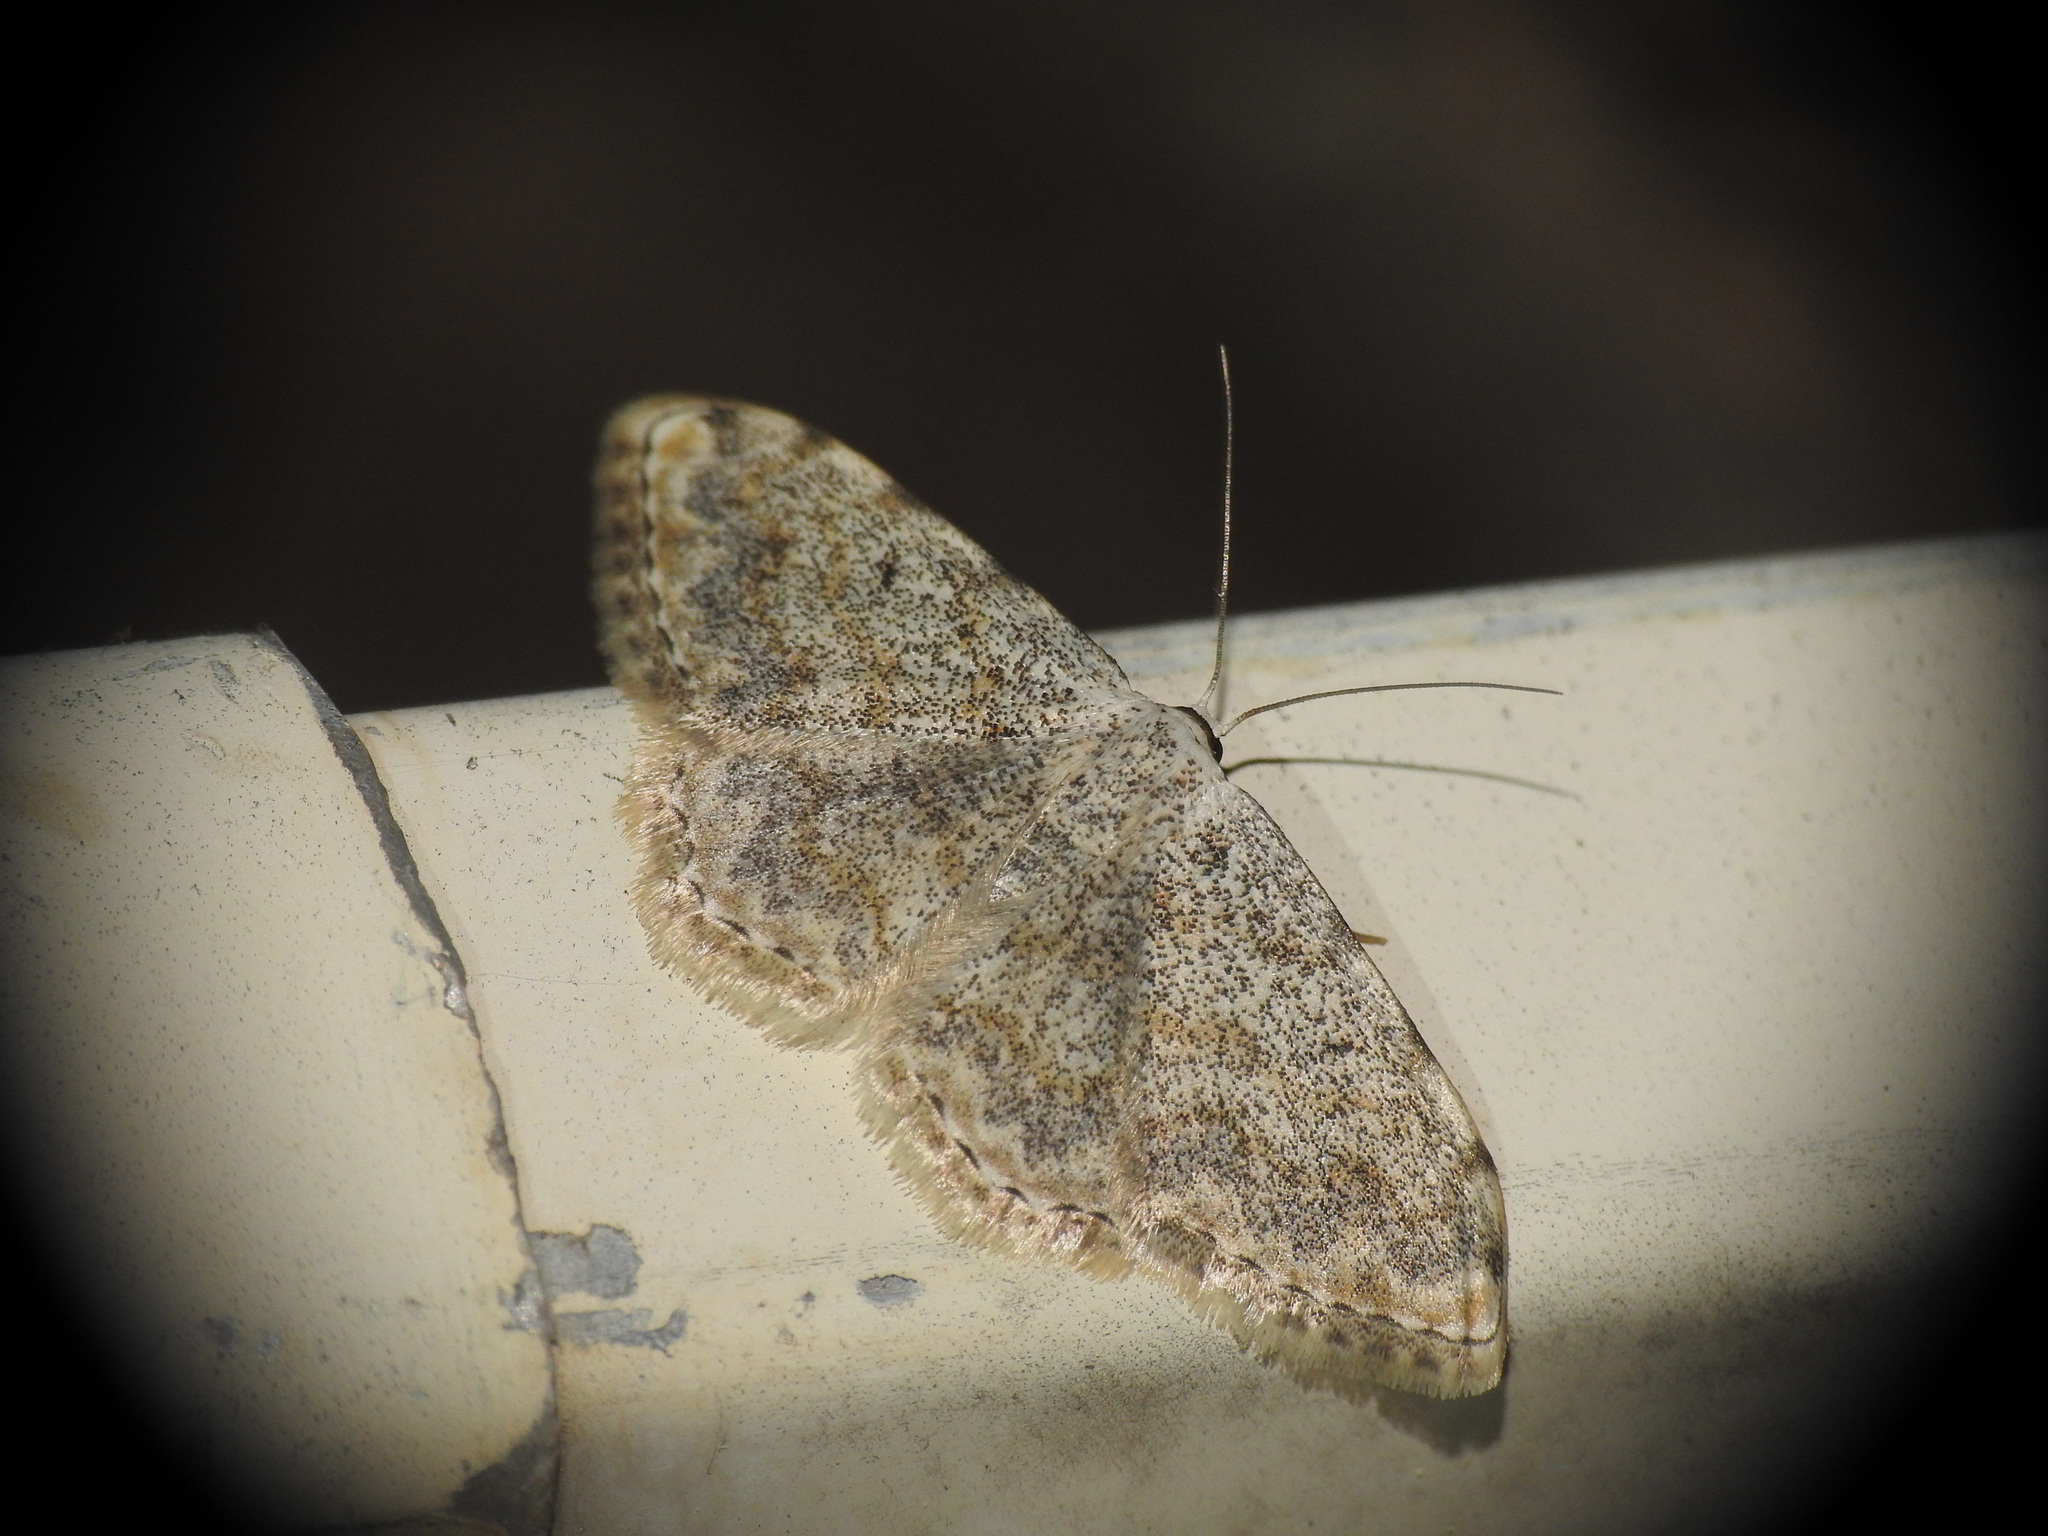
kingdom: Animalia
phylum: Arthropoda
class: Insecta
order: Lepidoptera
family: Geometridae
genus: Scopula
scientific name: Scopula submutata
